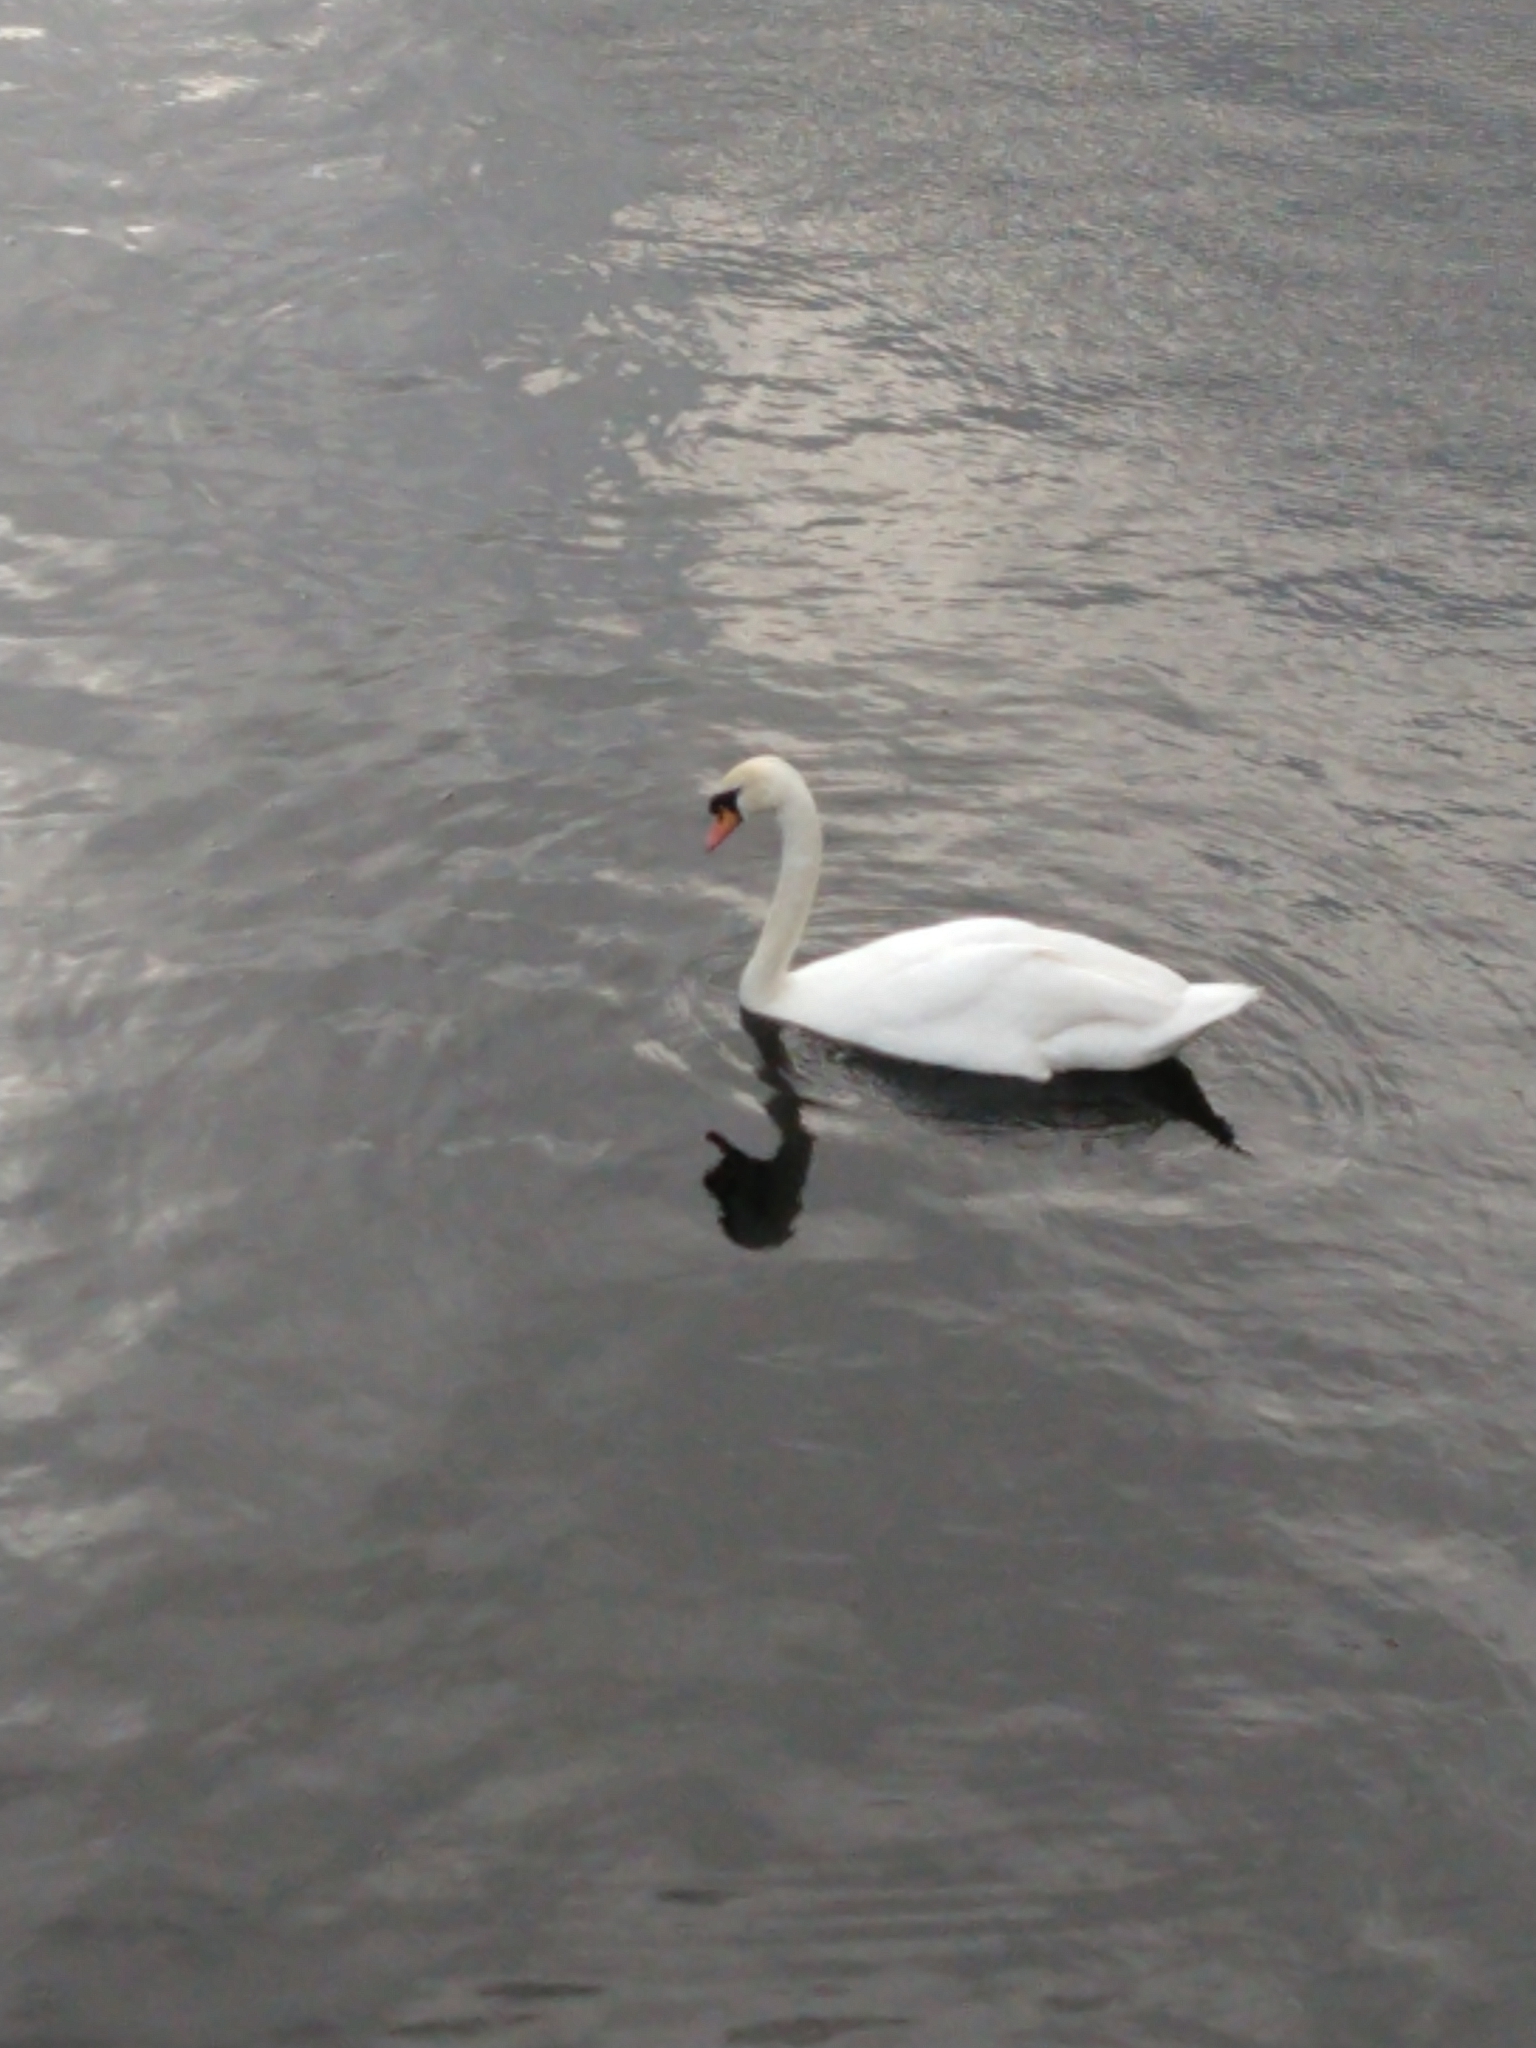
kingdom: Animalia
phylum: Chordata
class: Aves
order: Anseriformes
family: Anatidae
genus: Cygnus
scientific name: Cygnus olor
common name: Mute swan
